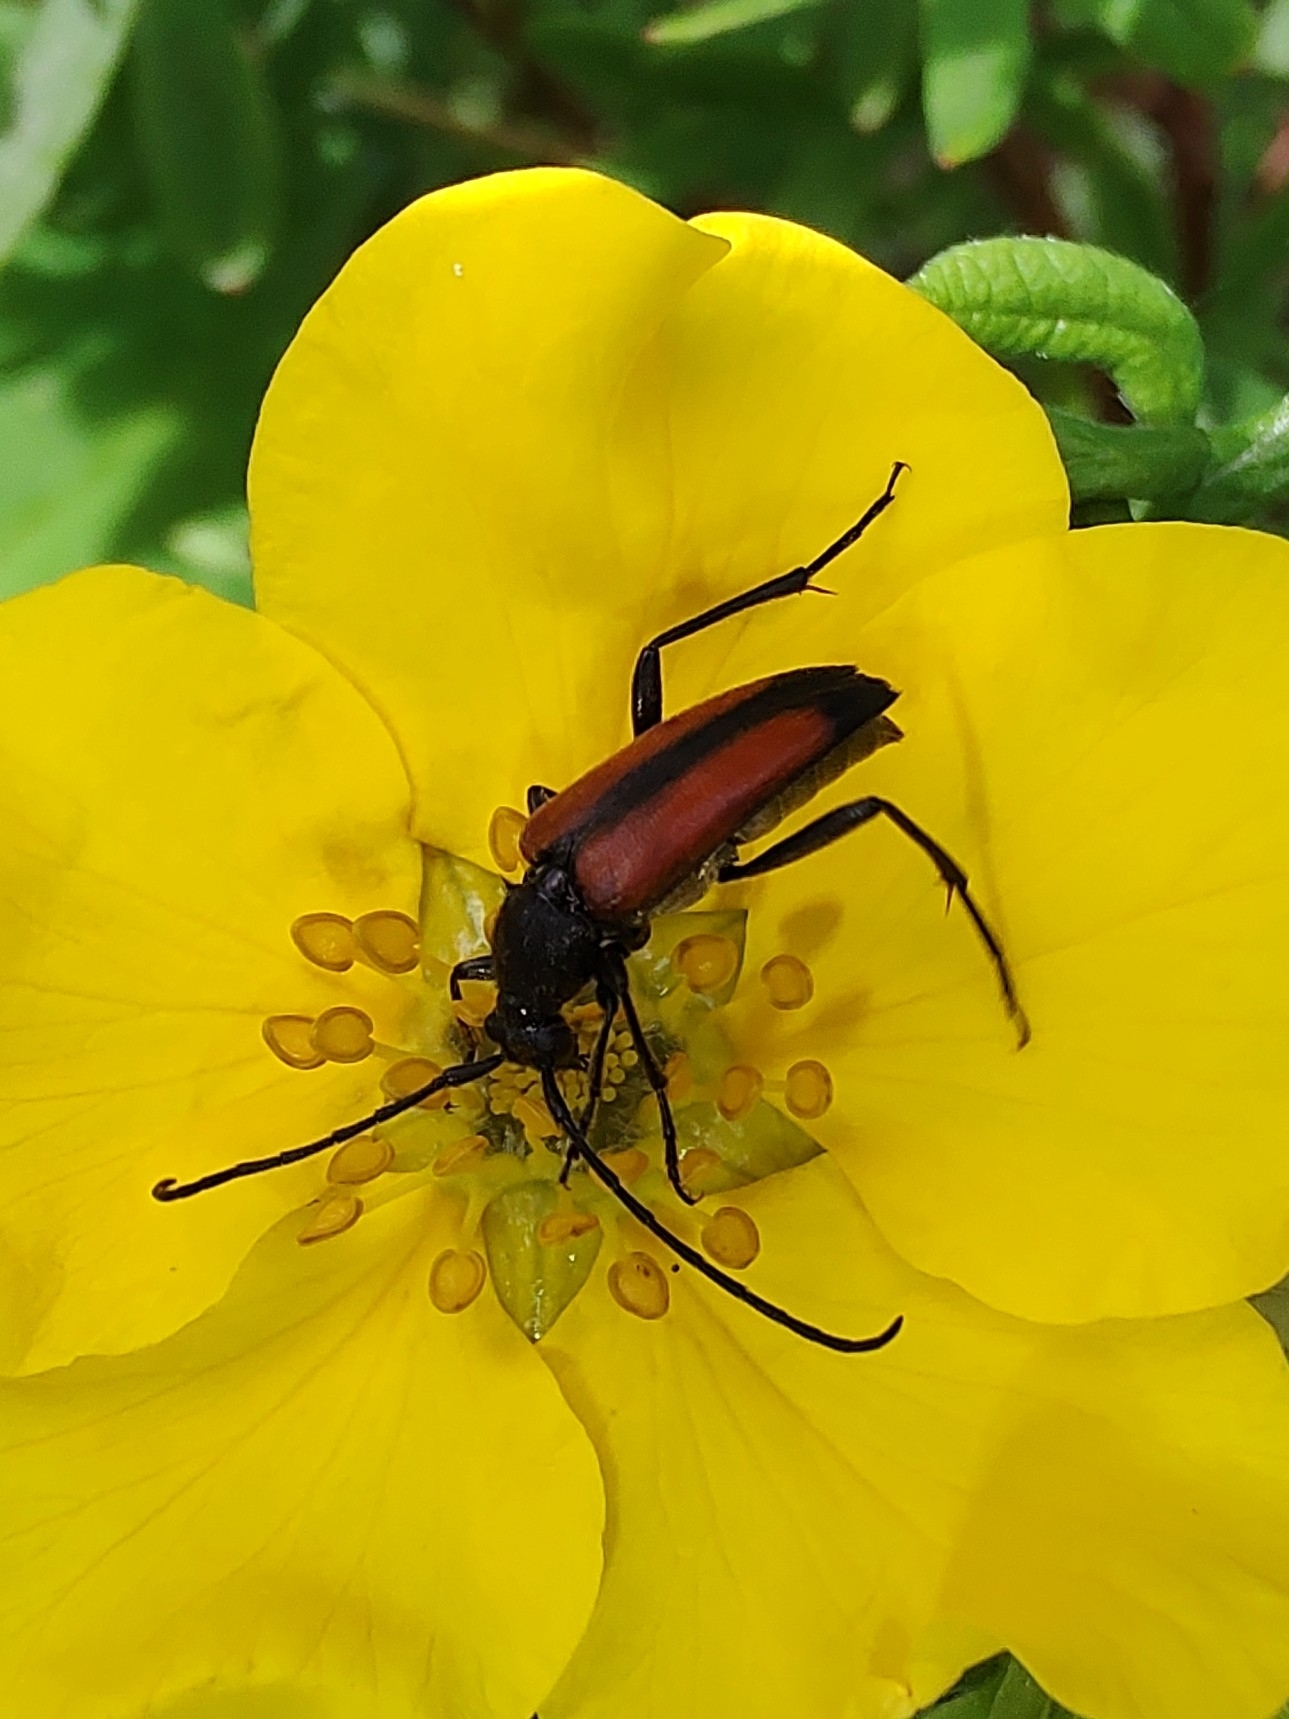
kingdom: Animalia
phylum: Arthropoda
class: Insecta
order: Coleoptera
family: Cerambycidae
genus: Stenurella
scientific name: Stenurella melanura
